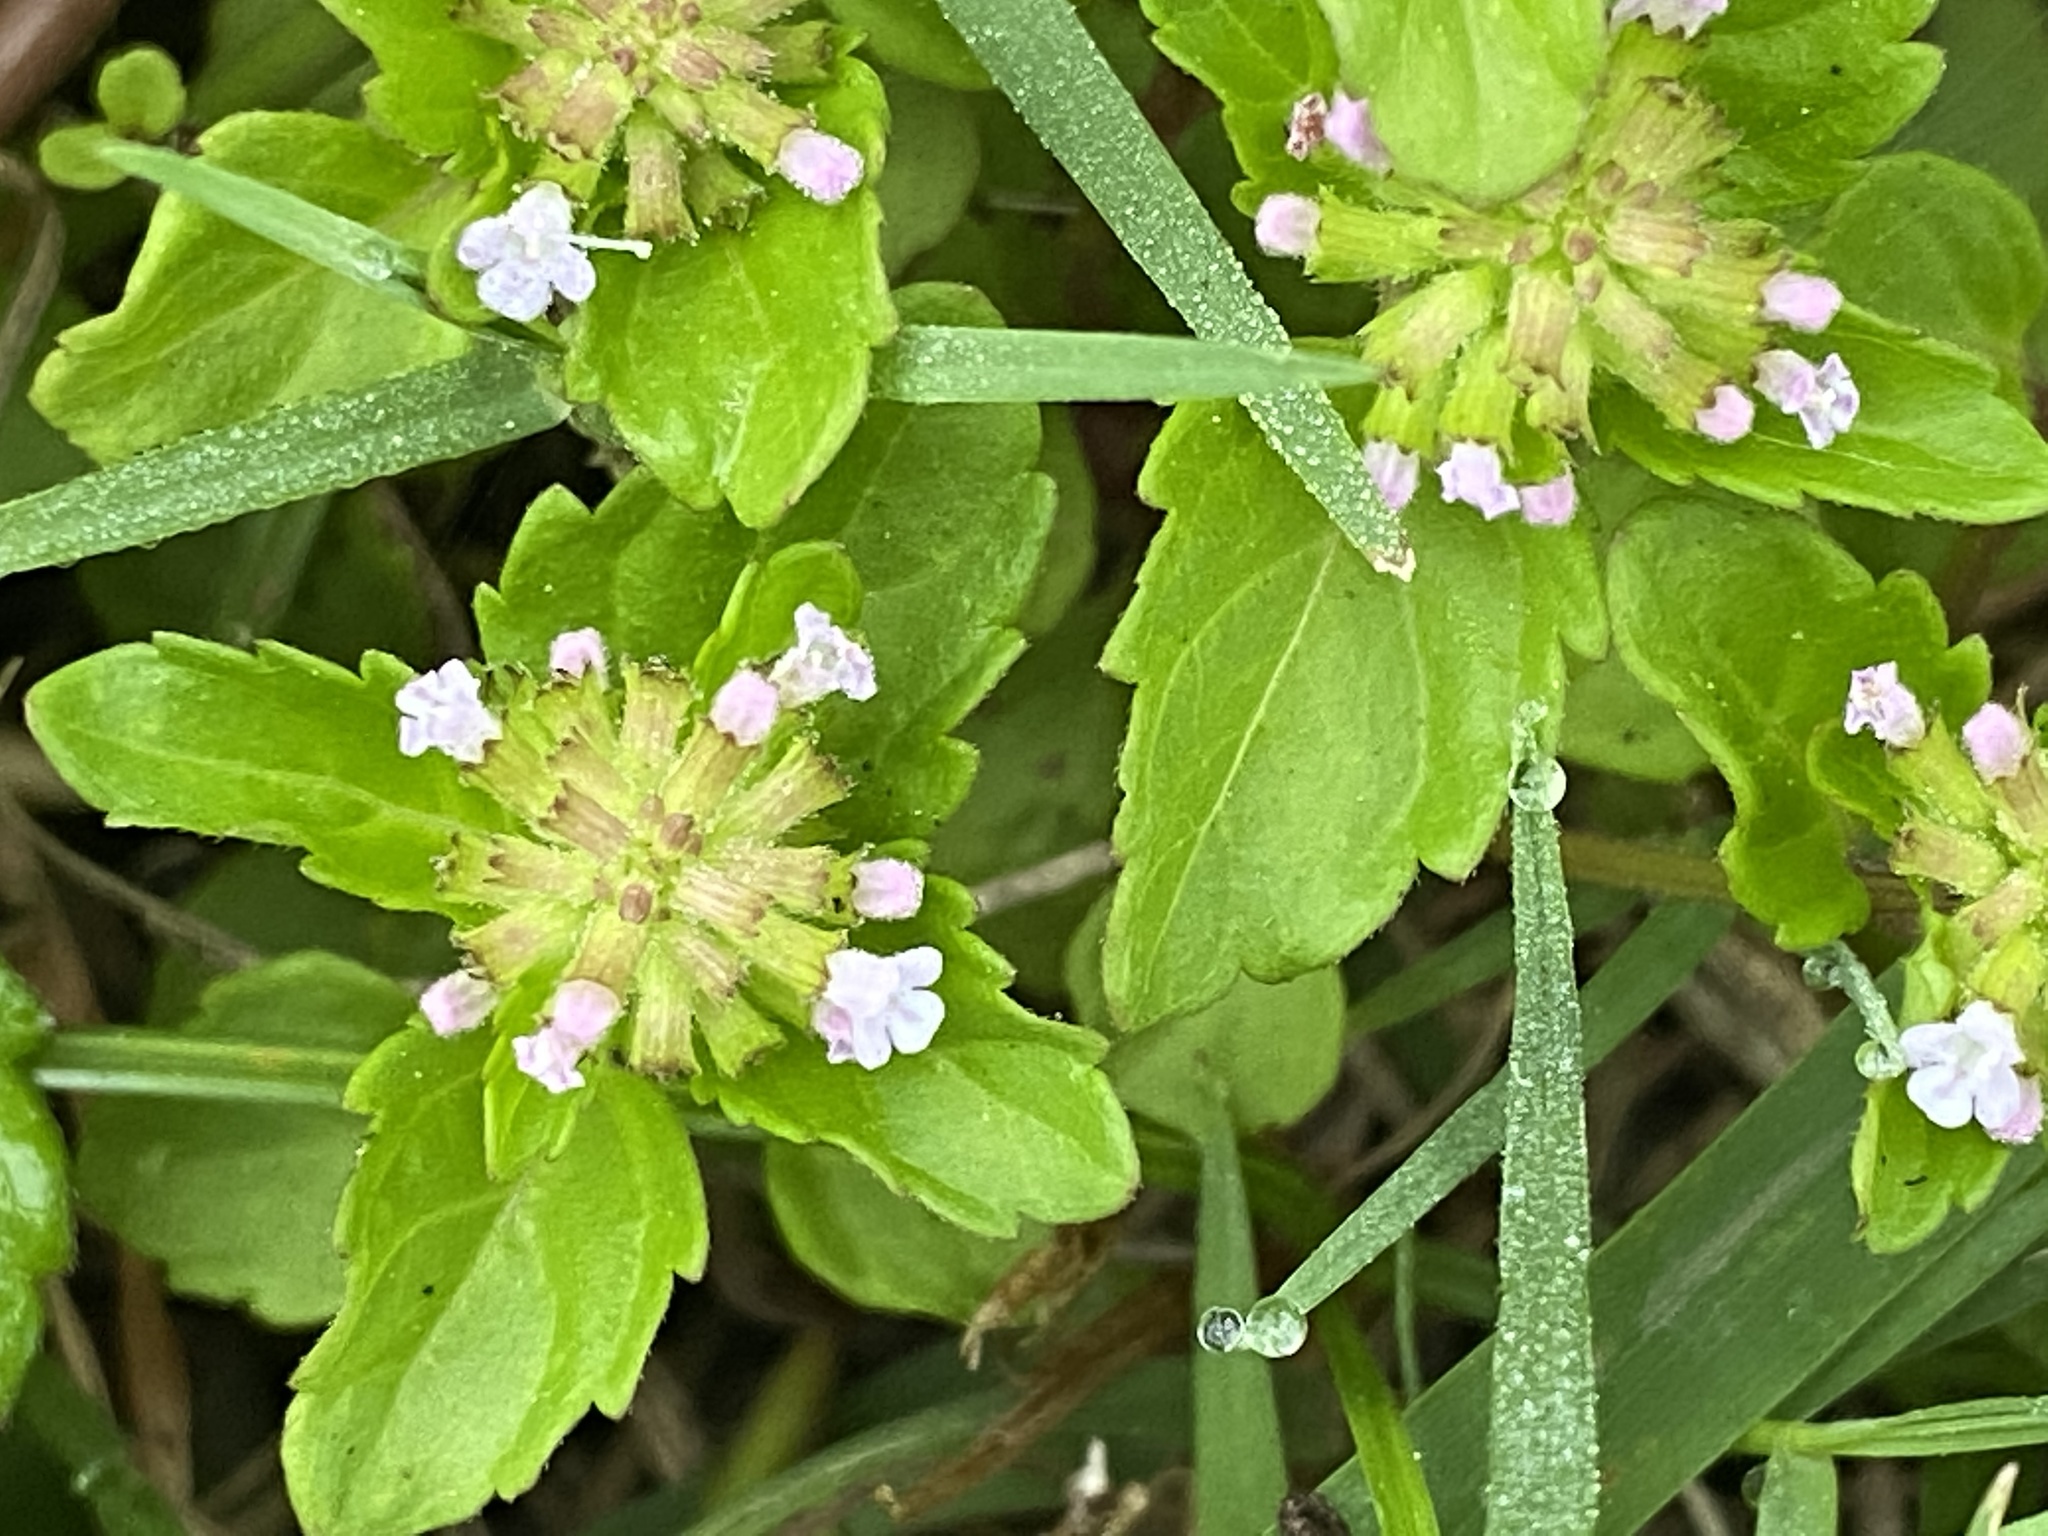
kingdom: Plantae
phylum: Tracheophyta
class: Magnoliopsida
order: Lamiales
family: Lamiaceae
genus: Clinopodium
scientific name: Clinopodium gracile
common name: Slender wild basil
